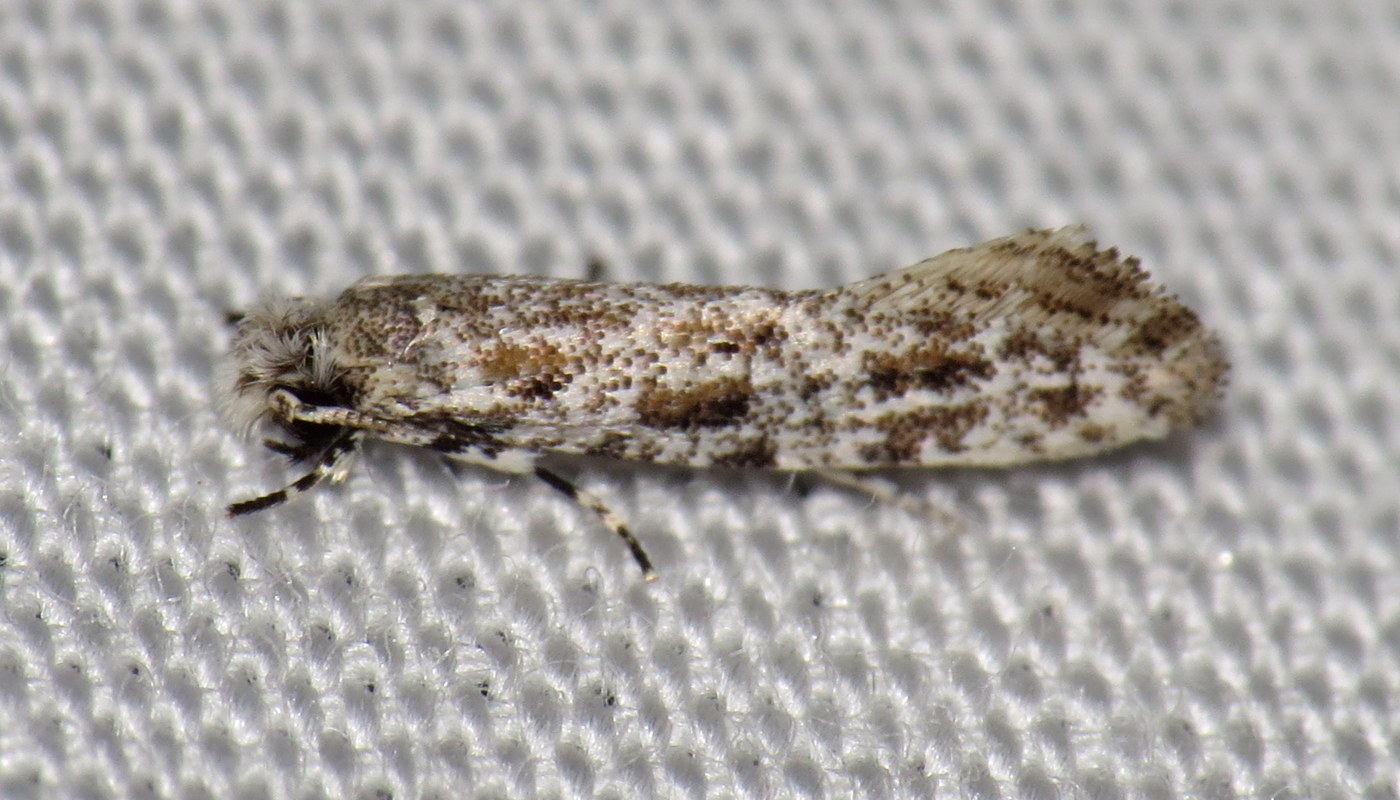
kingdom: Animalia
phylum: Arthropoda
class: Insecta
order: Lepidoptera
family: Meessiidae
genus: Diachorisia
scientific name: Diachorisia velatella
